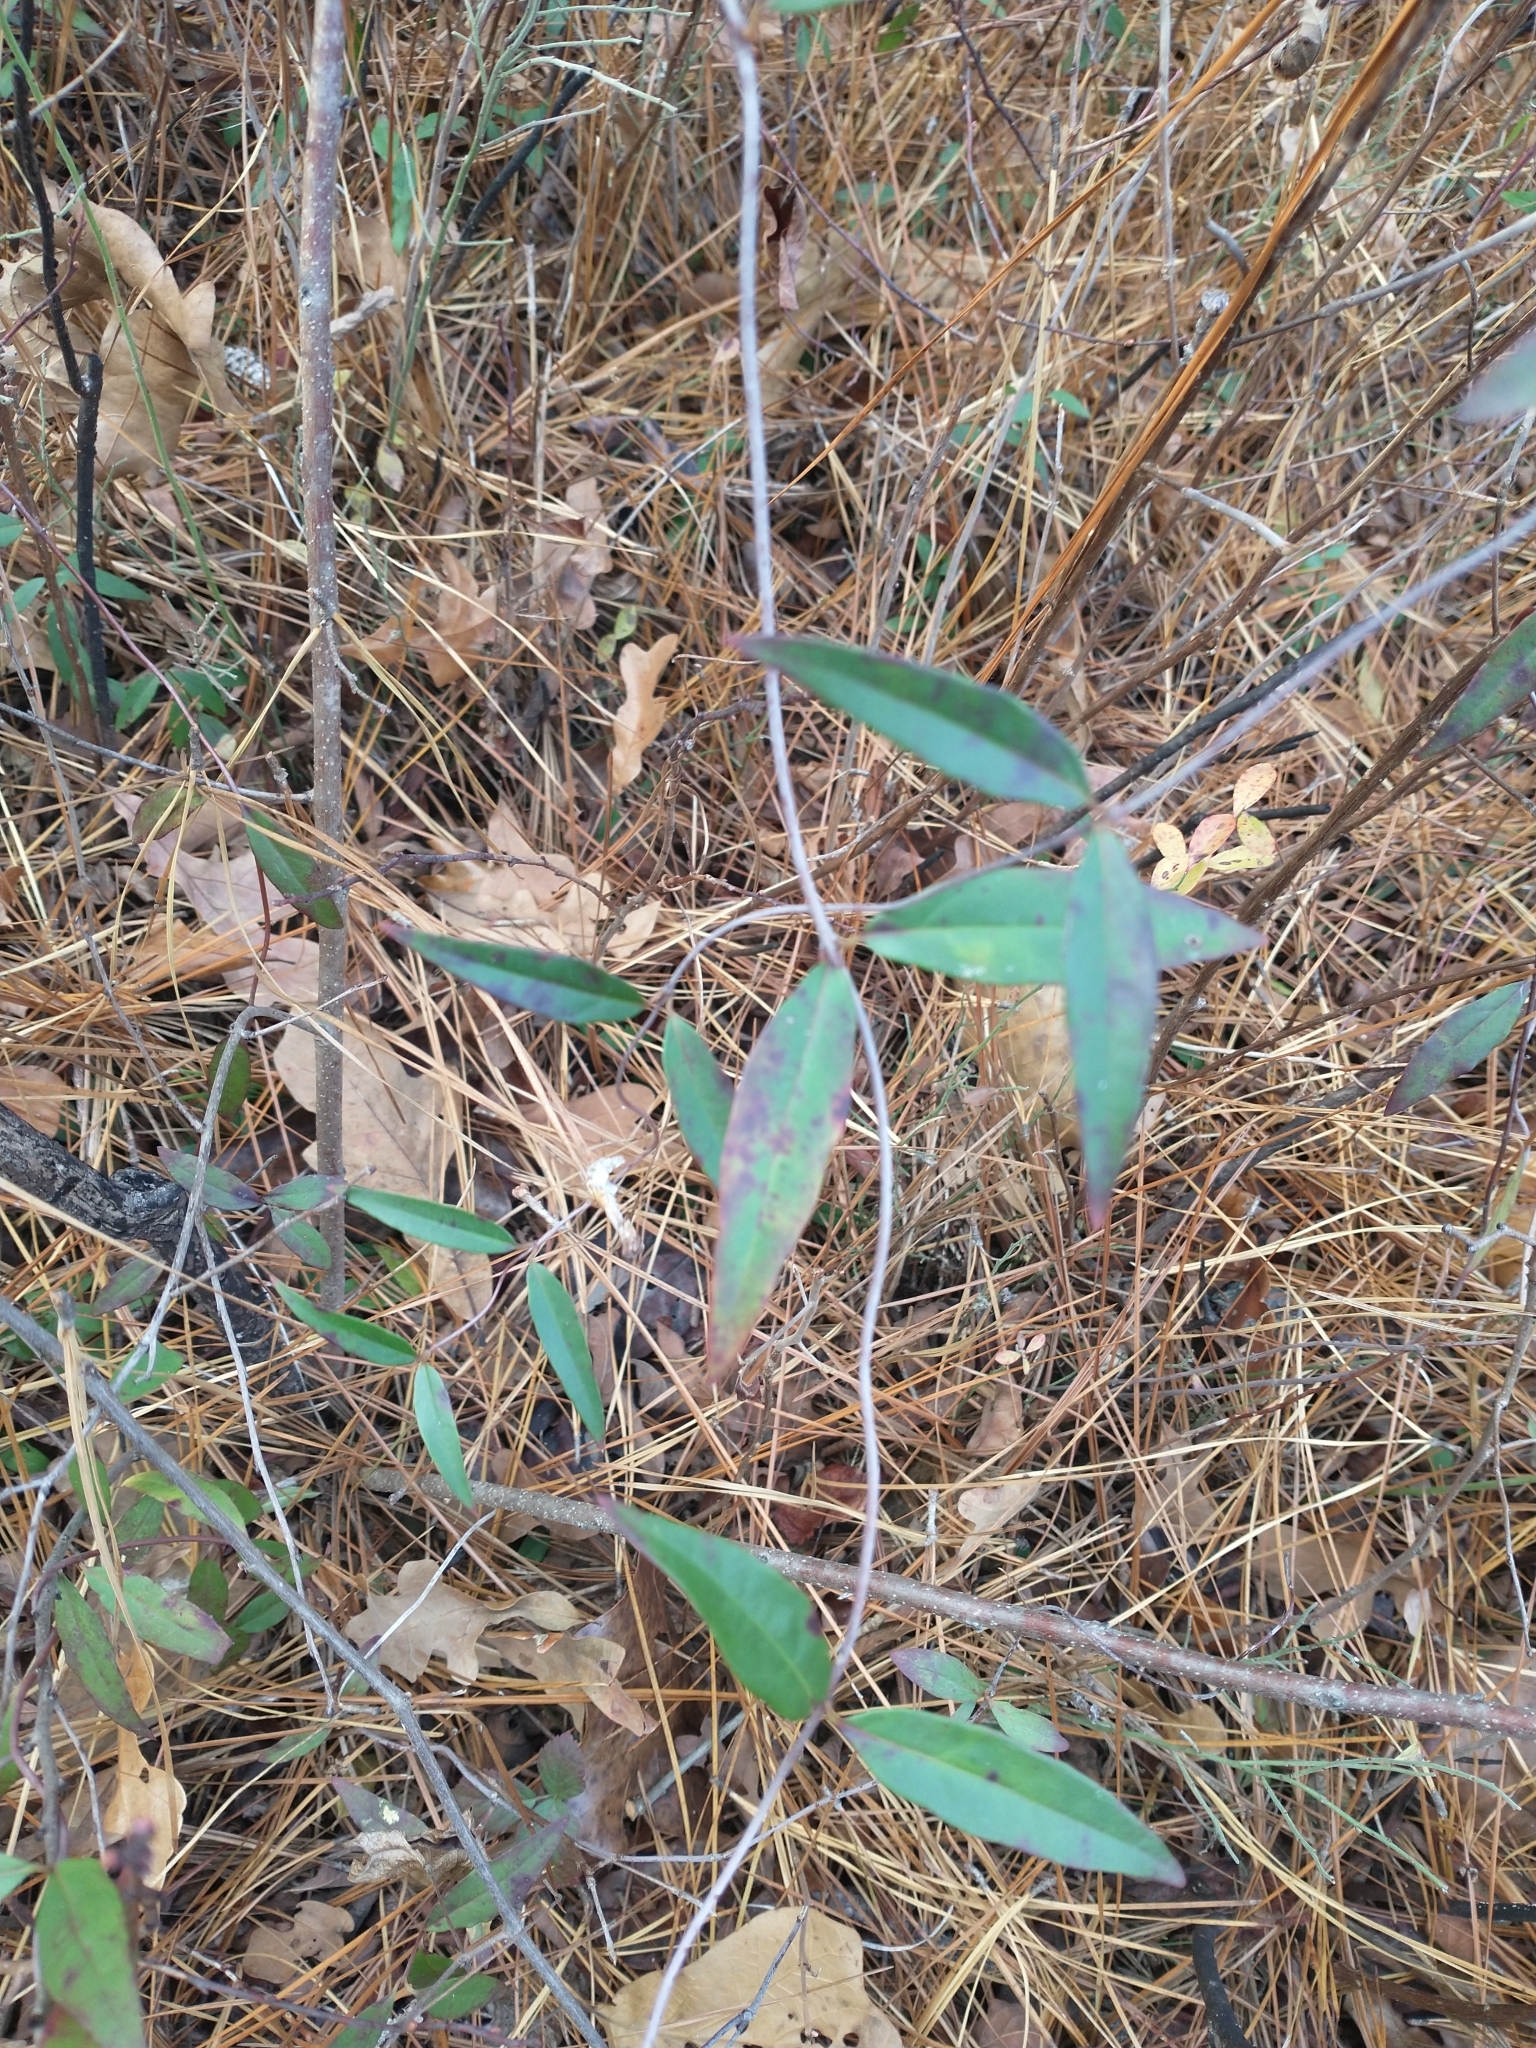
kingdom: Plantae
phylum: Tracheophyta
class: Magnoliopsida
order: Gentianales
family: Gelsemiaceae
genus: Gelsemium
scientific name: Gelsemium sempervirens
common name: Carolina-jasmine
